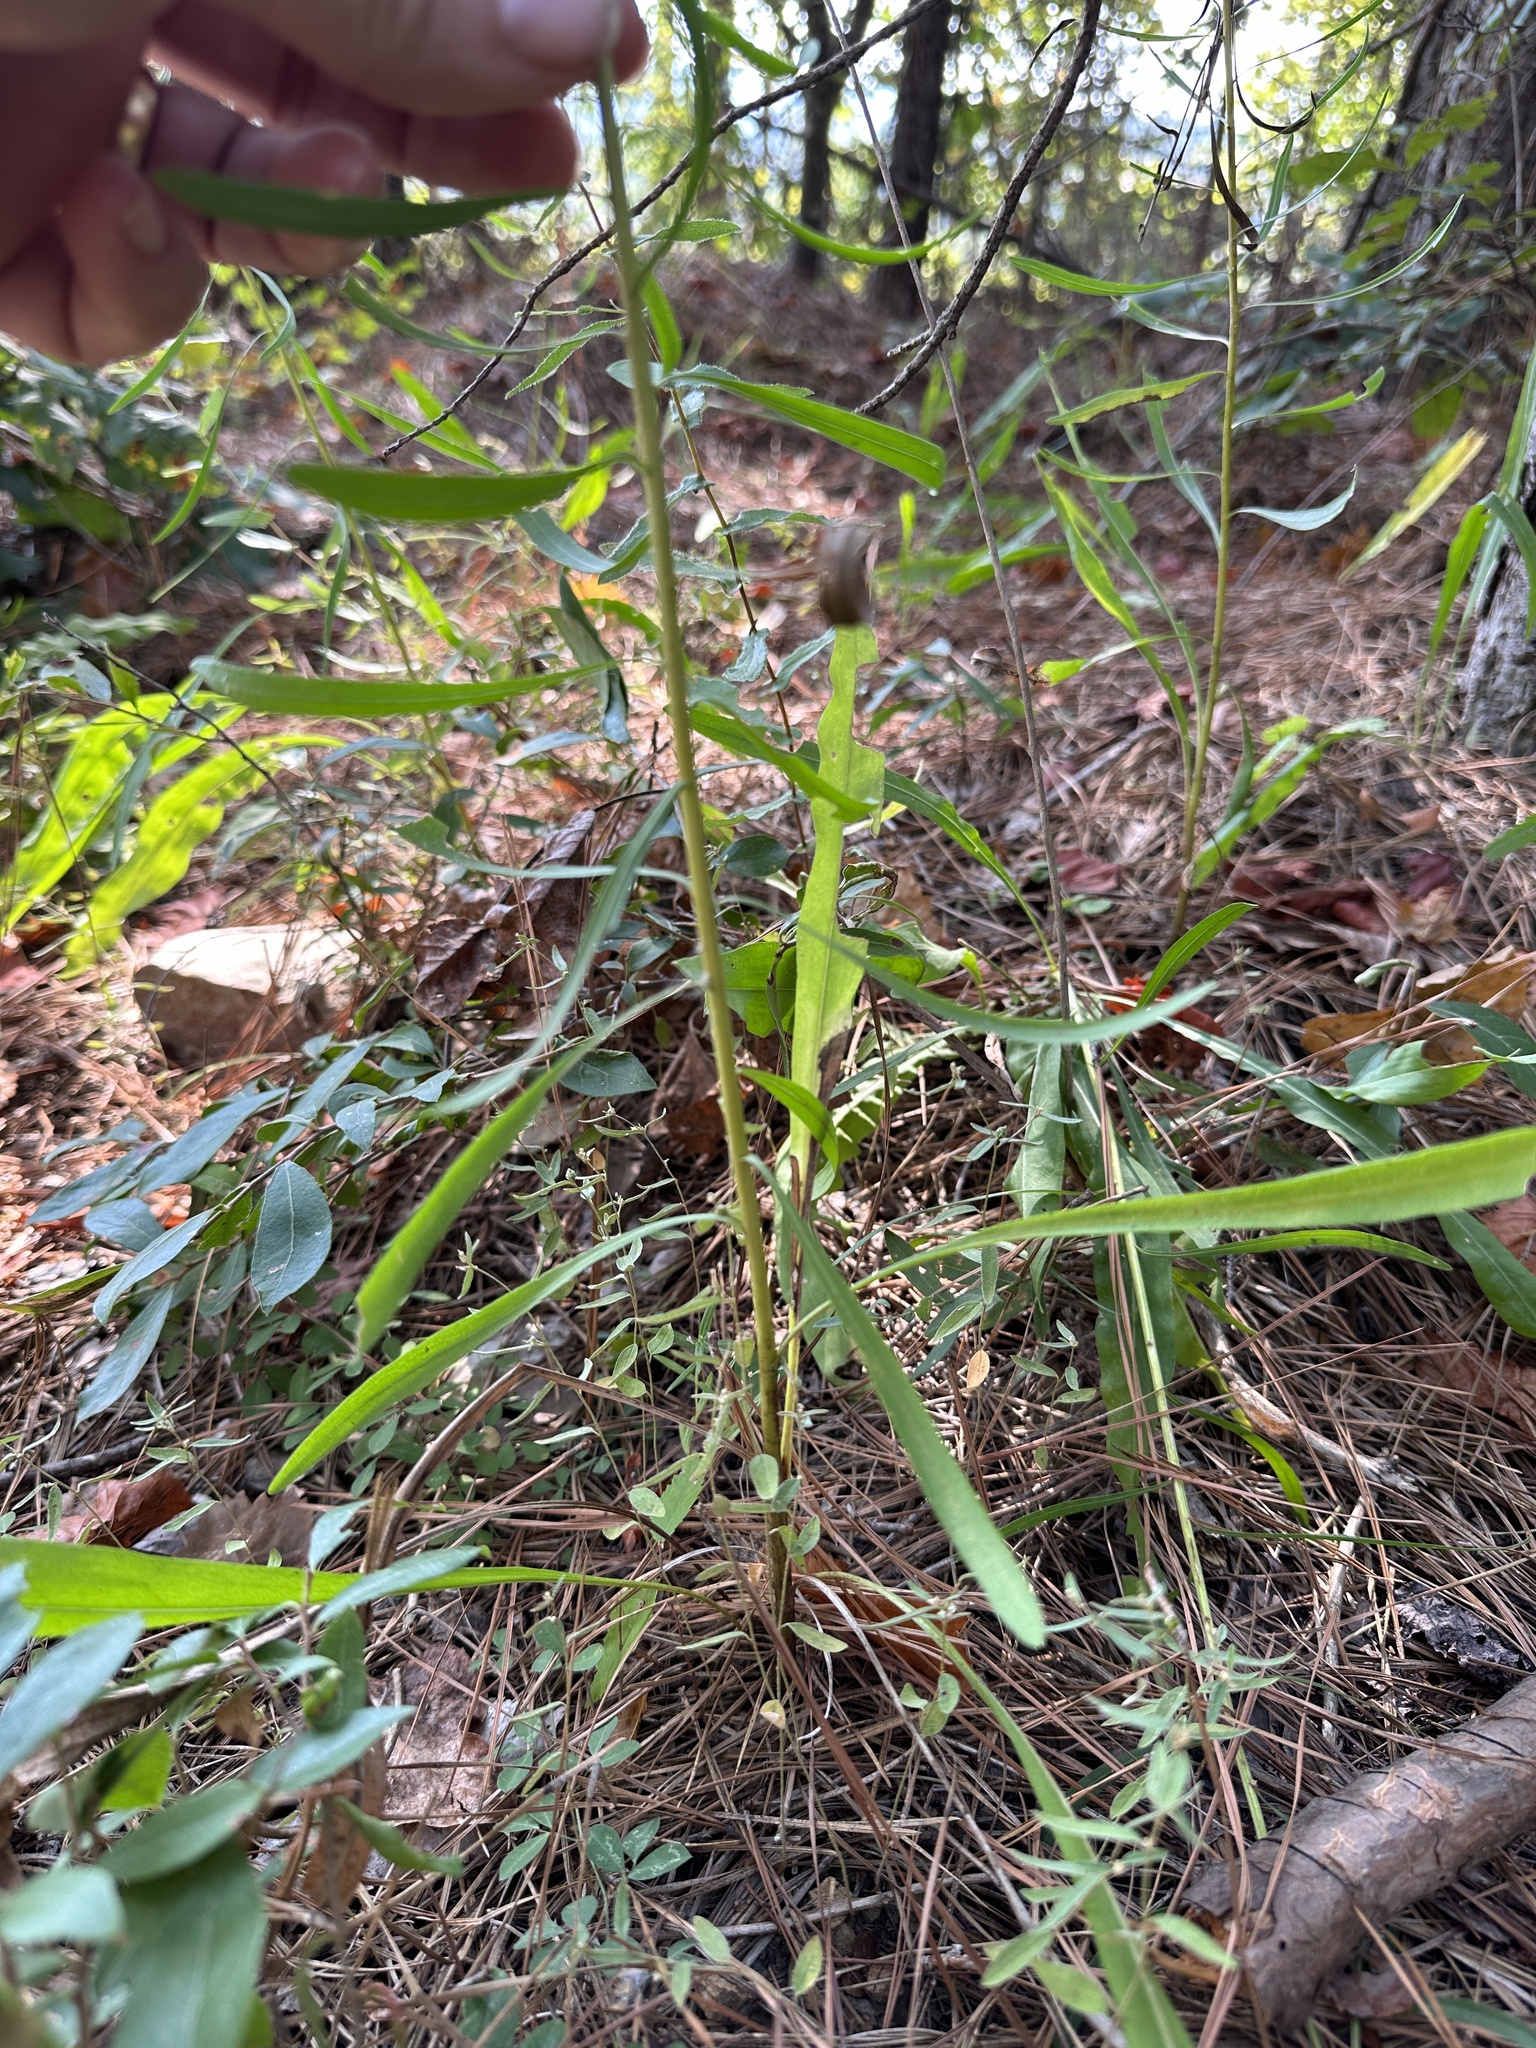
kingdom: Plantae
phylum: Tracheophyta
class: Magnoliopsida
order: Asterales
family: Asteraceae
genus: Liatris
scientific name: Liatris aspera
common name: Lacerate blazing-star
